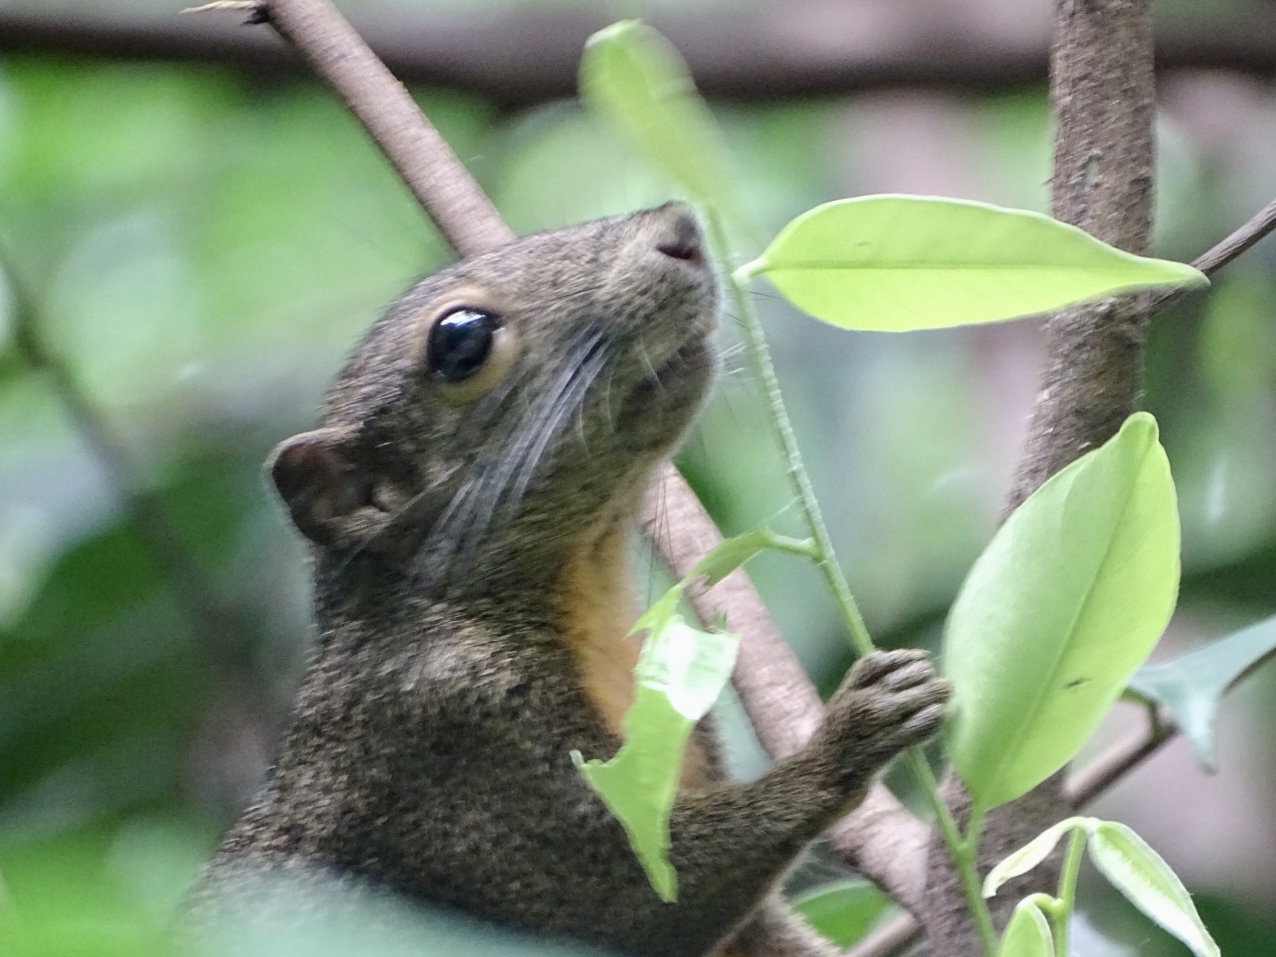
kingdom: Animalia
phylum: Chordata
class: Mammalia
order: Rodentia
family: Sciuridae
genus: Callosciurus
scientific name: Callosciurus notatus
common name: Plantain squirrel
